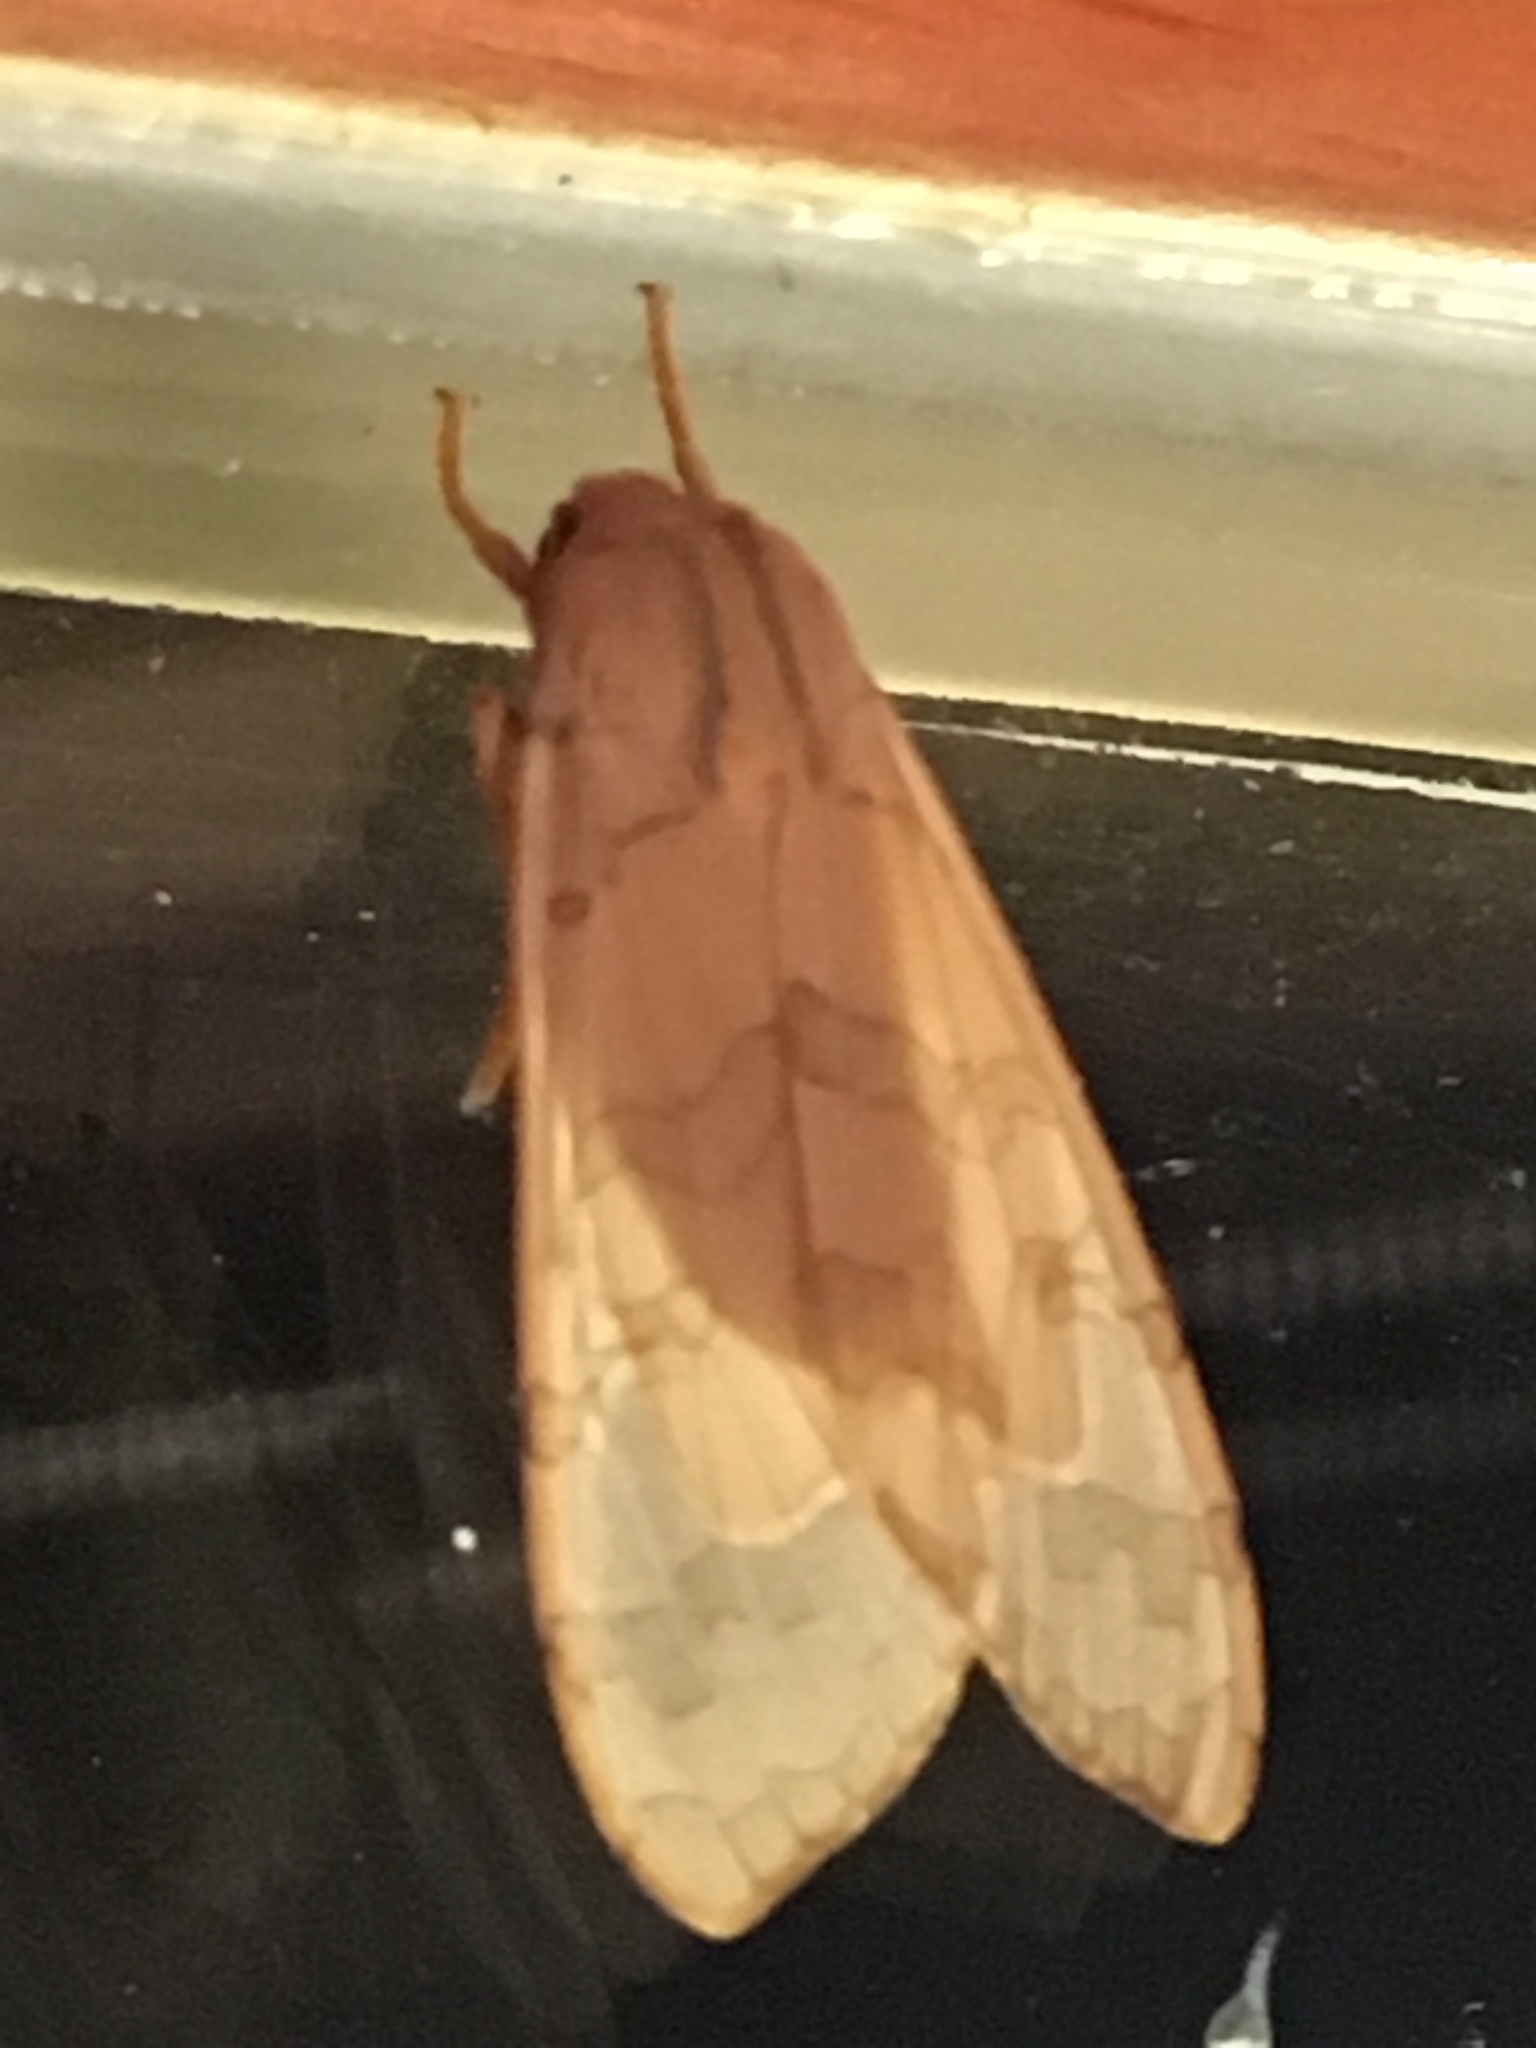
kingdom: Animalia
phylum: Arthropoda
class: Insecta
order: Lepidoptera
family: Erebidae
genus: Halysidota
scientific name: Halysidota tessellaris
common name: Banded tussock moth
